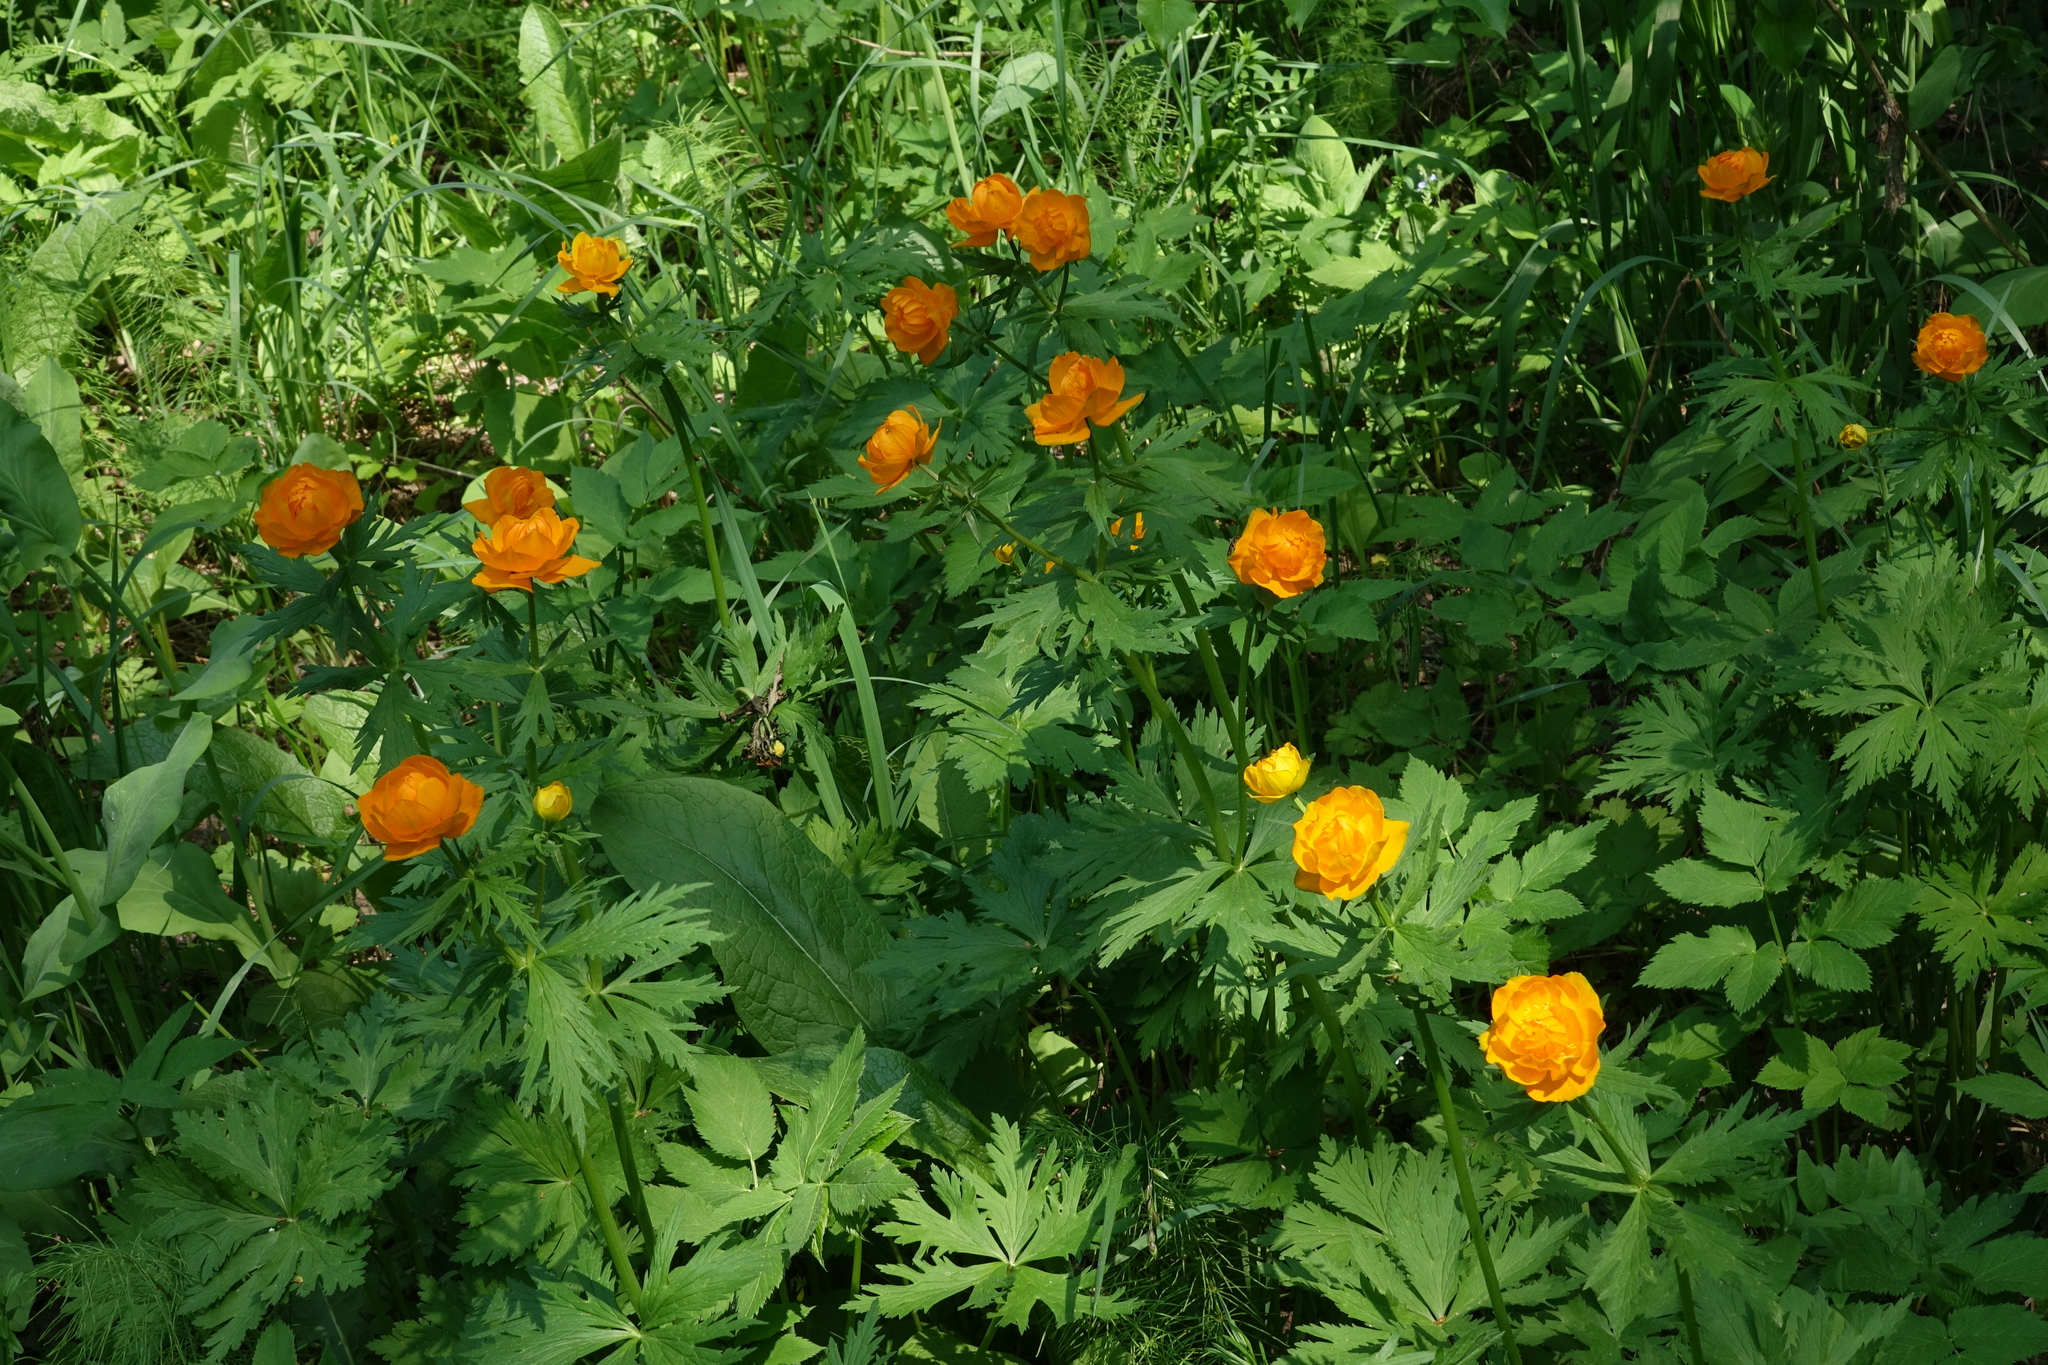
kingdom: Plantae
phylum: Tracheophyta
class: Magnoliopsida
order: Ranunculales
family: Ranunculaceae
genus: Trollius
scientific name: Trollius asiaticus
